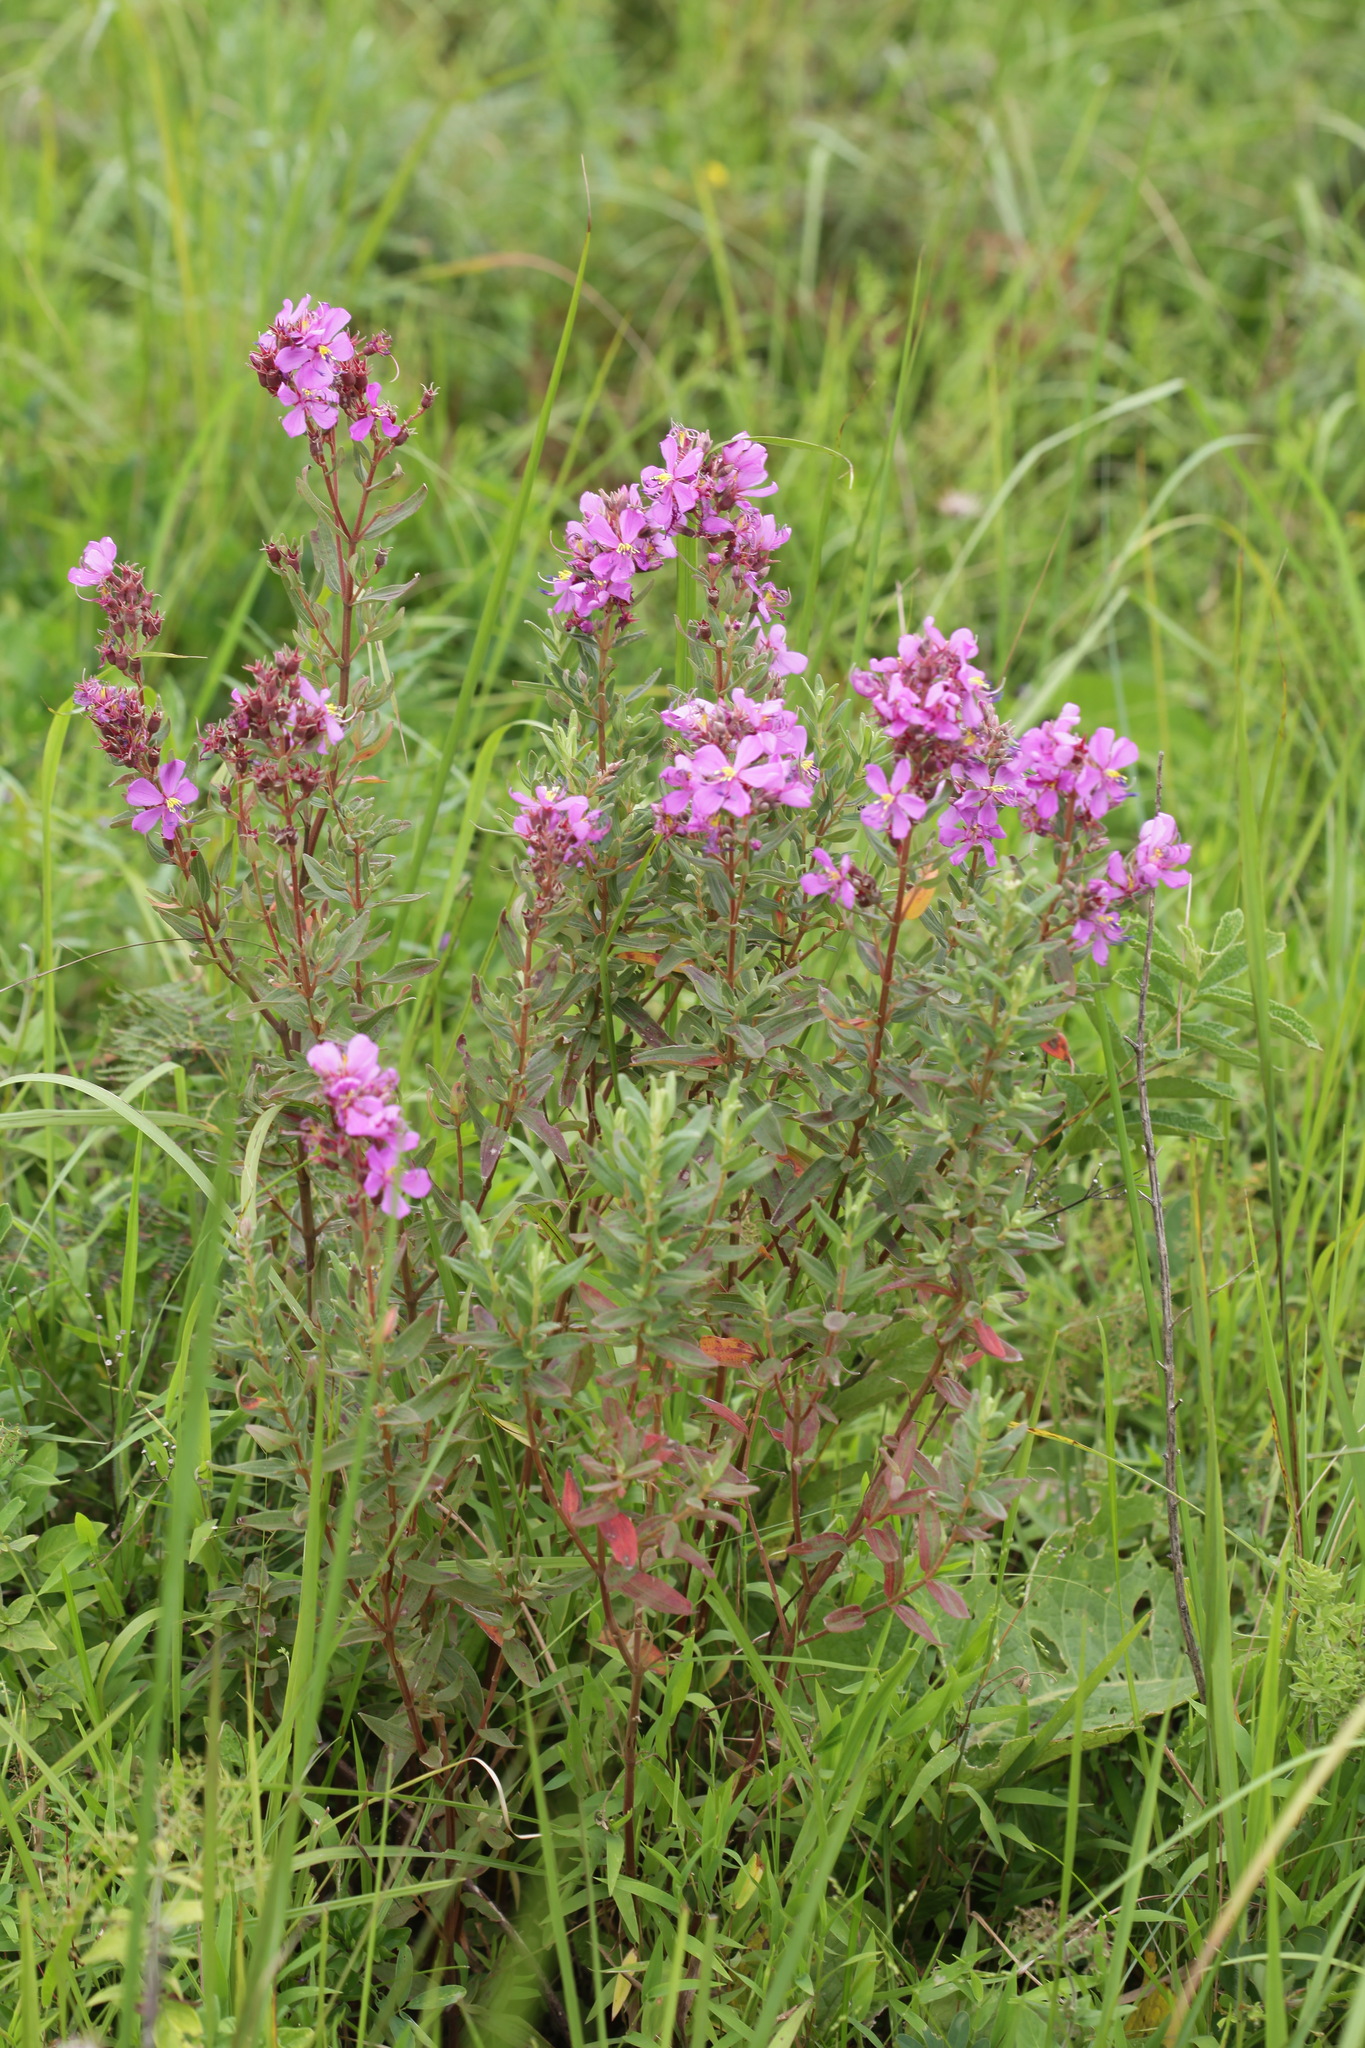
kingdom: Plantae
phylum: Tracheophyta
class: Magnoliopsida
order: Myrtales
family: Melastomataceae
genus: Argyrella
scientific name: Argyrella canescens
